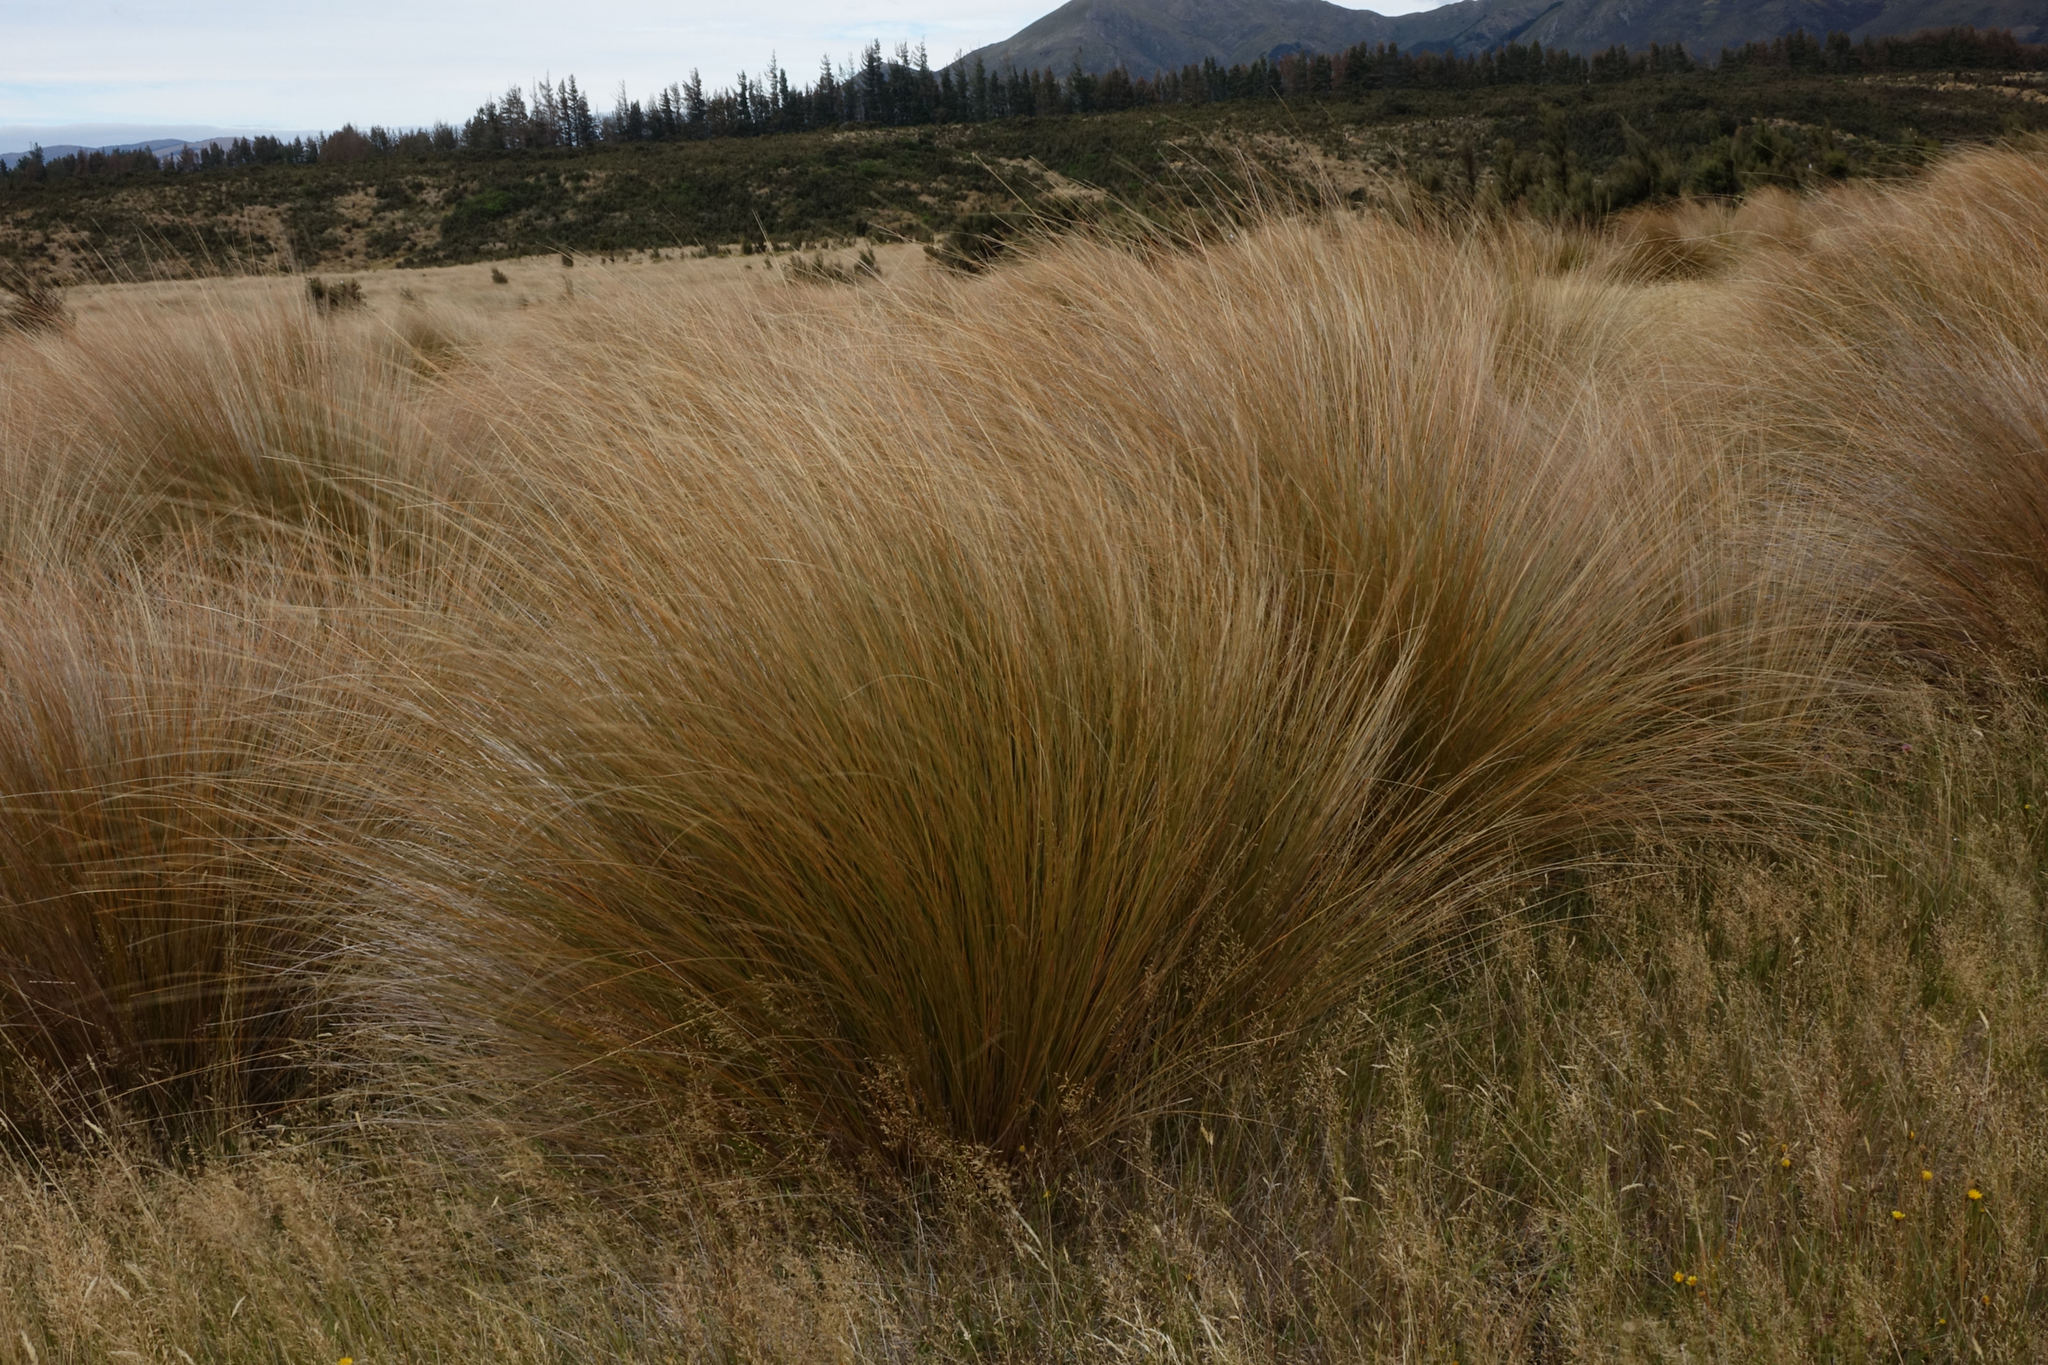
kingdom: Plantae
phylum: Tracheophyta
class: Liliopsida
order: Poales
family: Poaceae
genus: Chionochloa
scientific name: Chionochloa rubra
